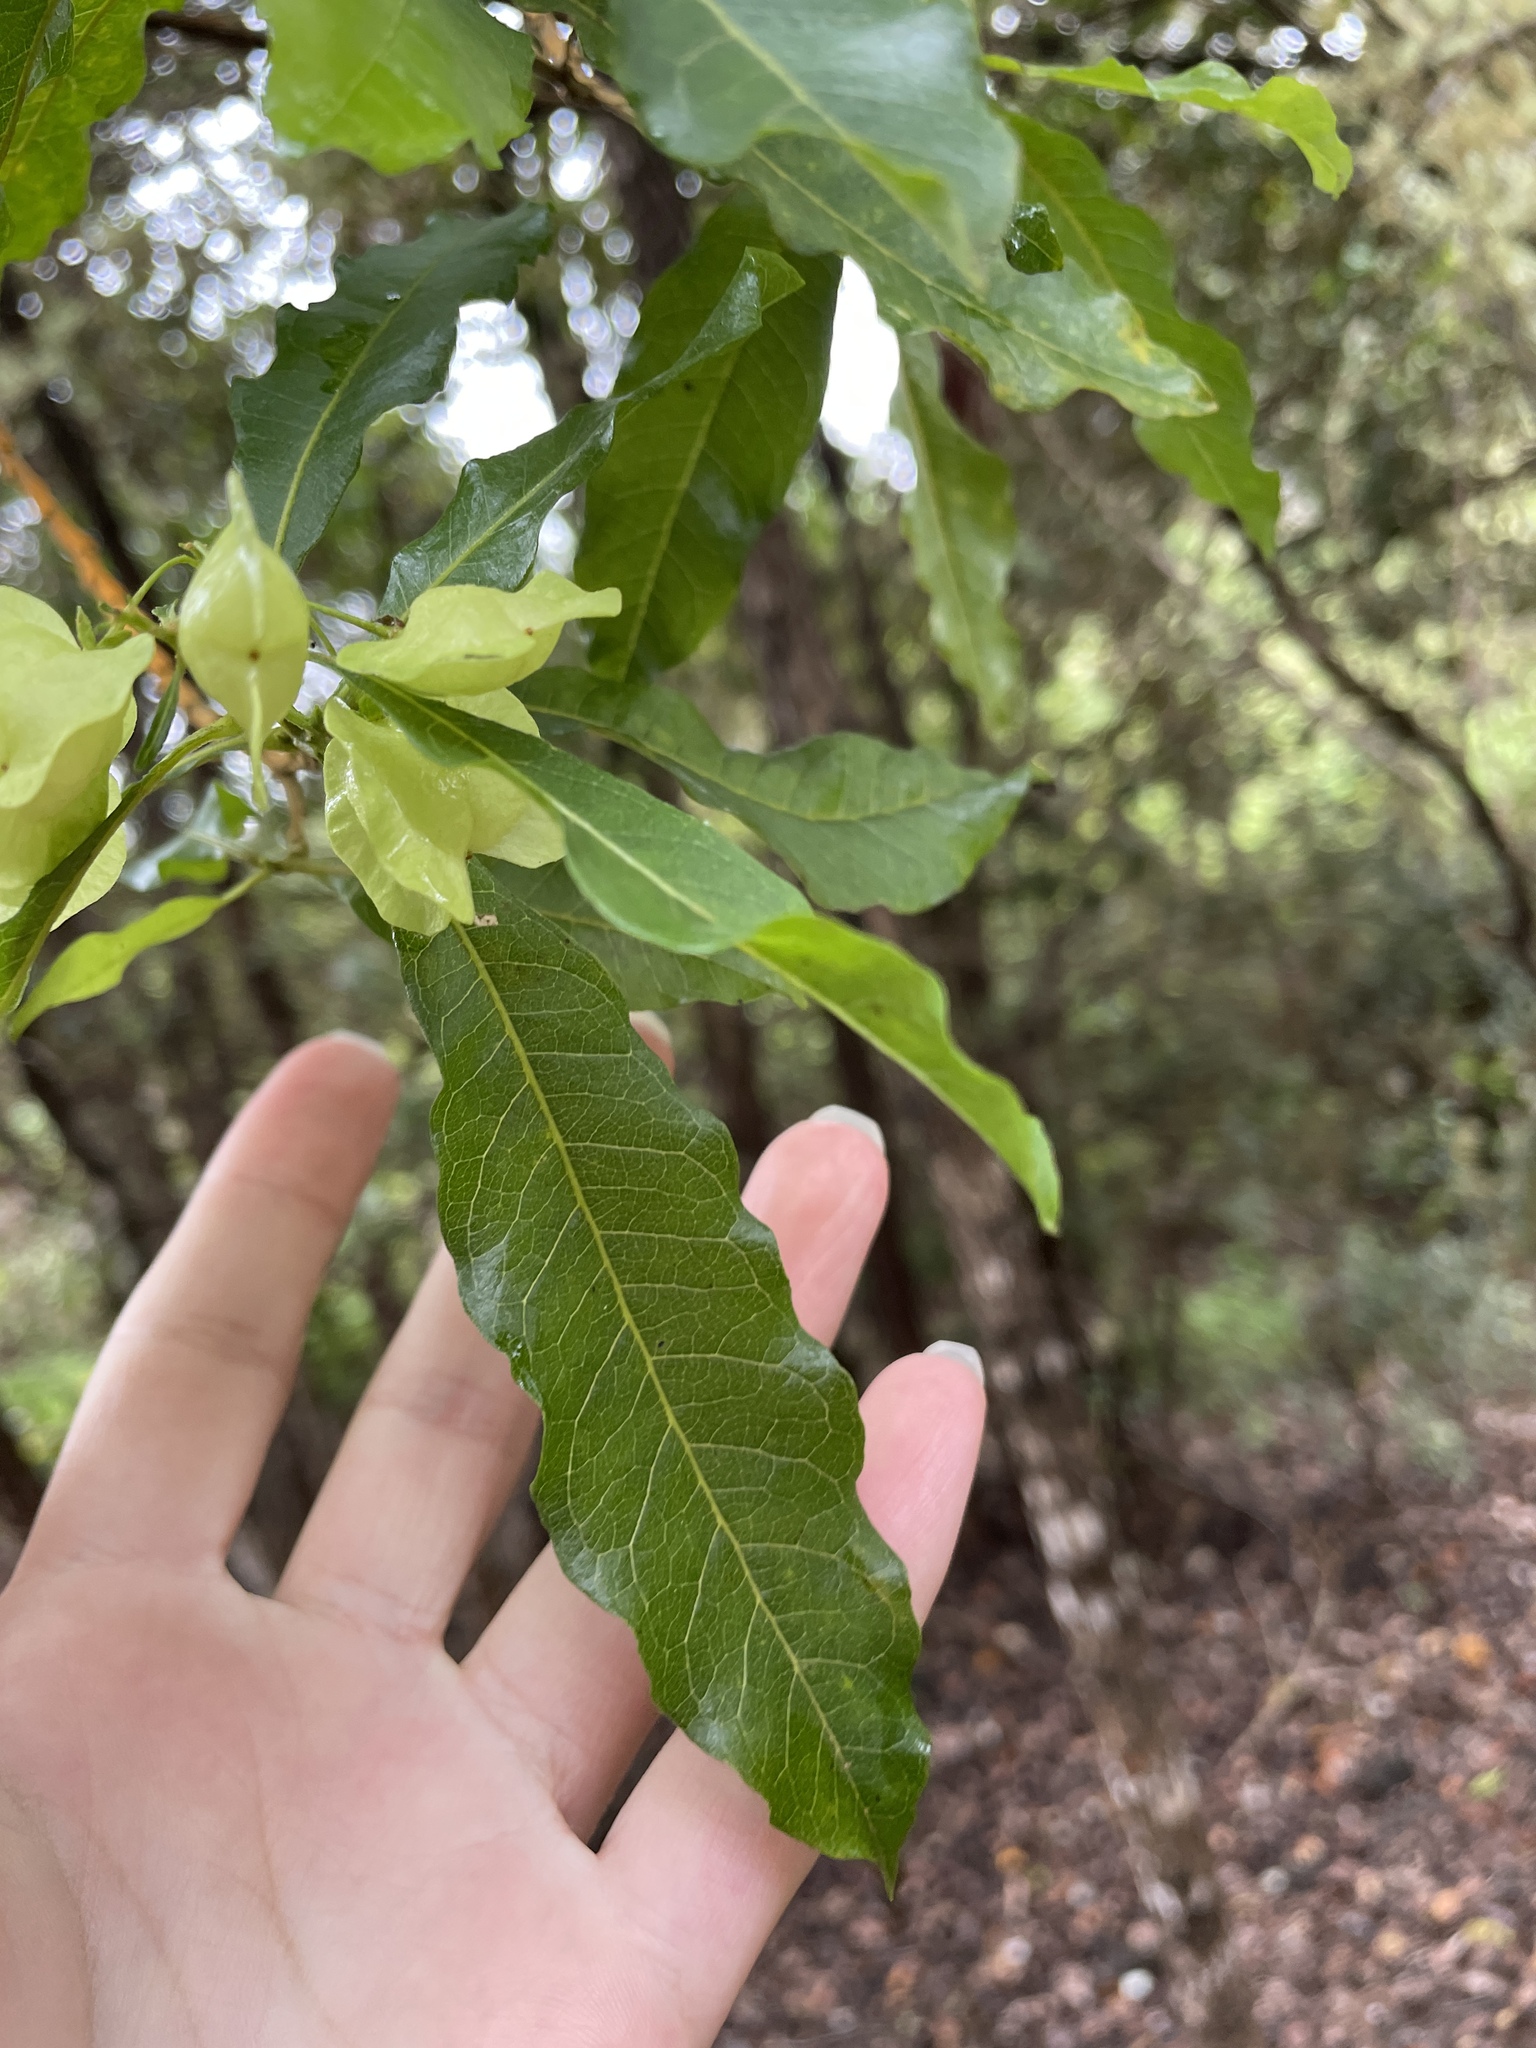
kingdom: Plantae
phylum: Tracheophyta
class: Magnoliopsida
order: Sapindales
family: Sapindaceae
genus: Dodonaea
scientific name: Dodonaea viscosa
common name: Hopbush
